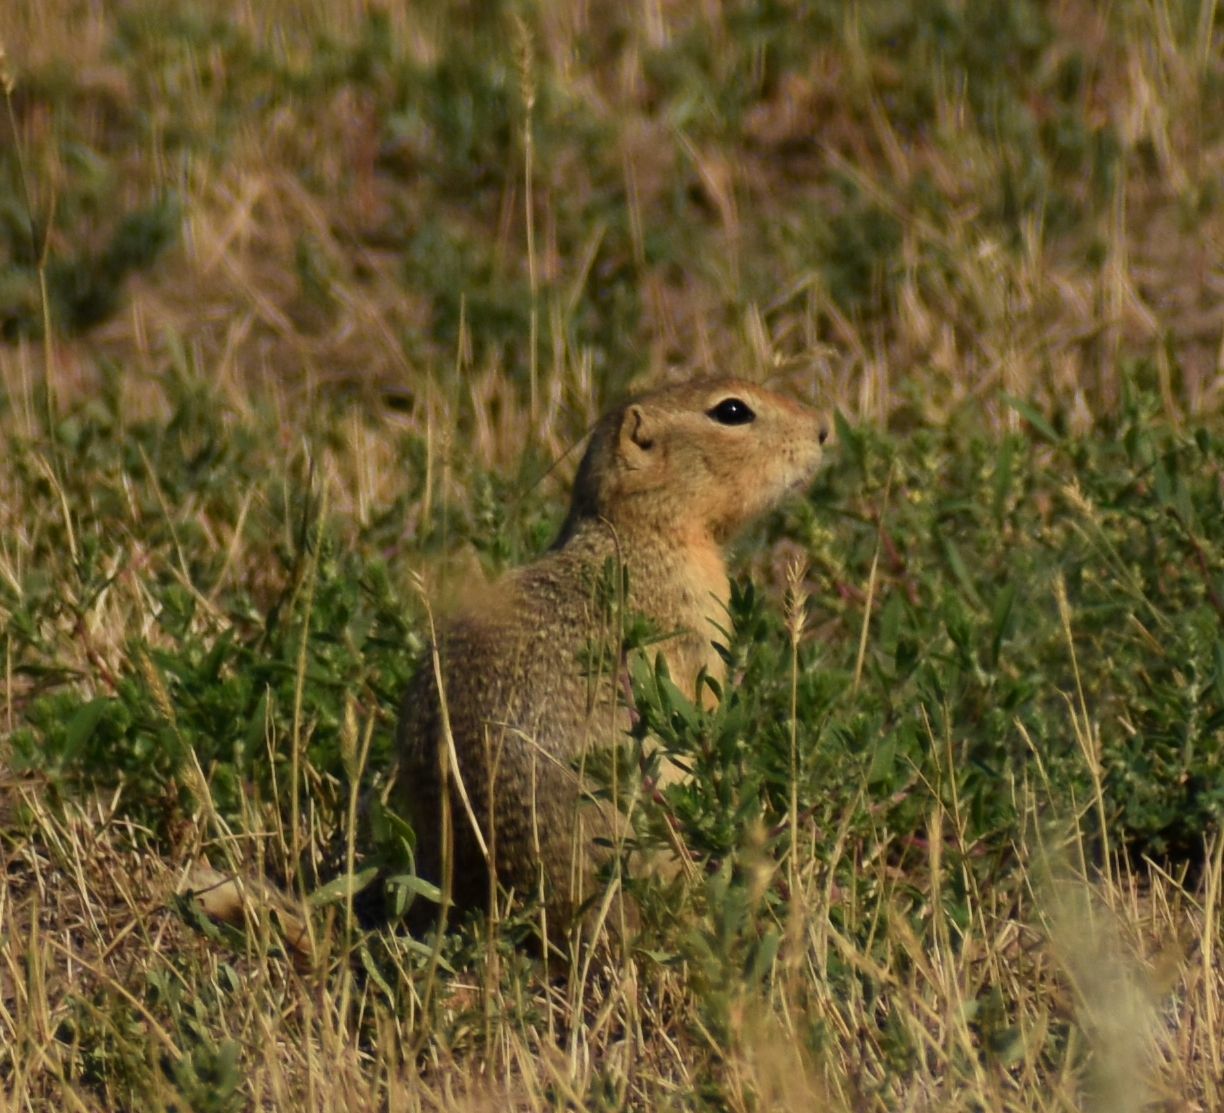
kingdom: Animalia
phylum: Chordata
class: Mammalia
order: Rodentia
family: Sciuridae
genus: Urocitellus
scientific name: Urocitellus richardsonii
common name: Richardson's ground squirrel
